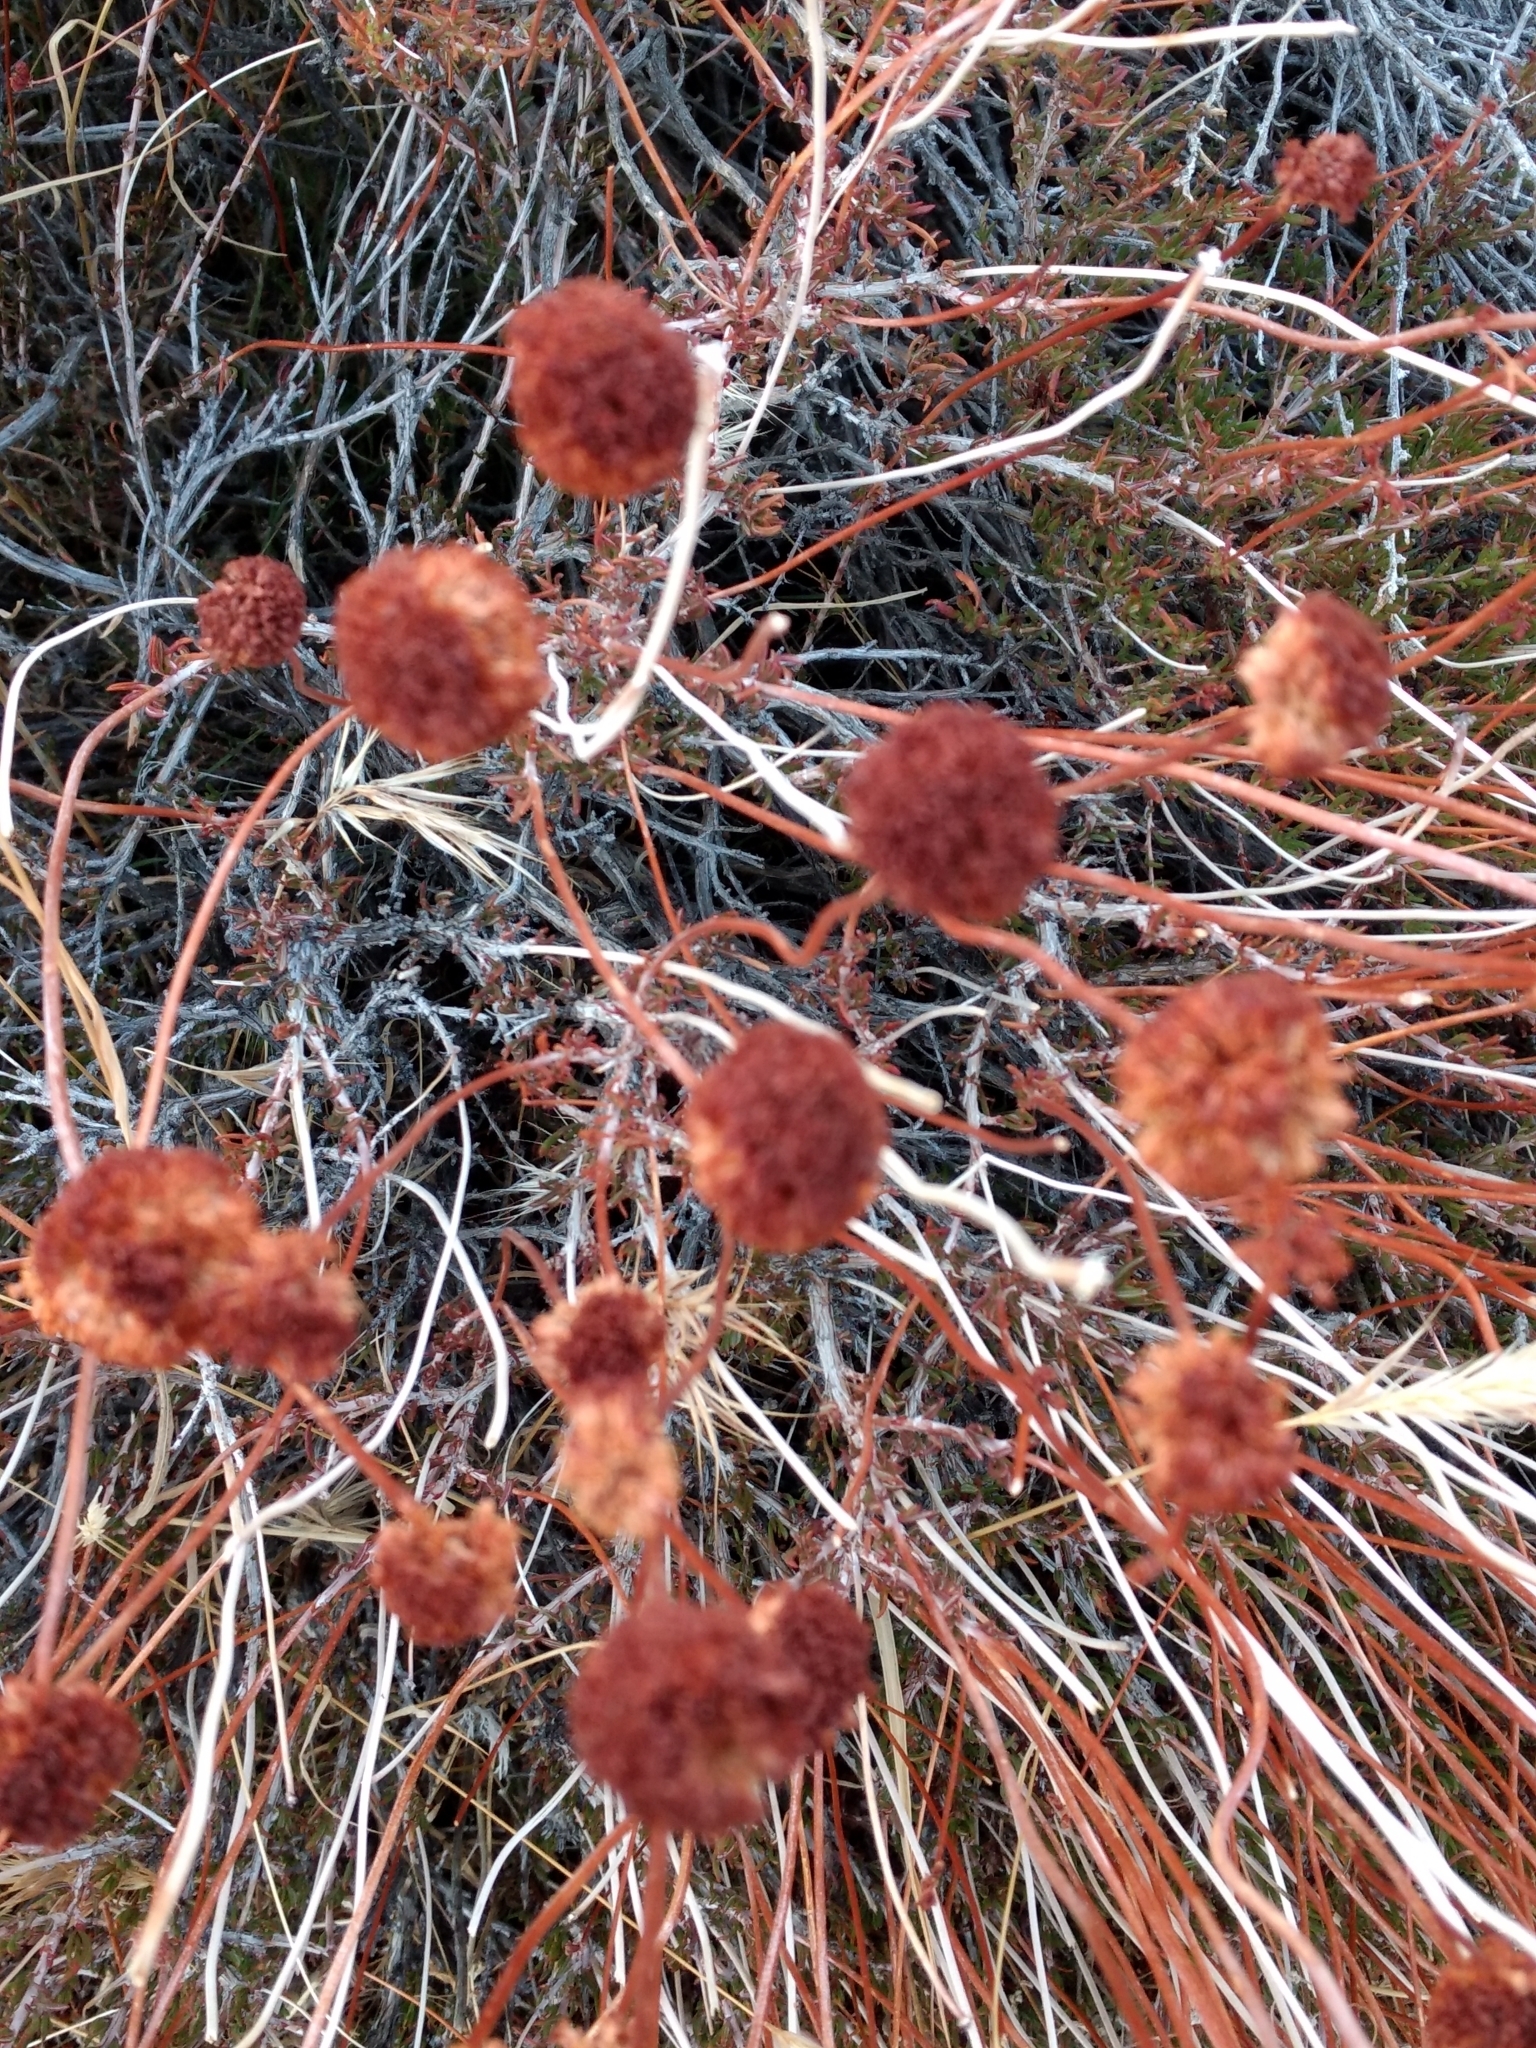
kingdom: Plantae
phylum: Tracheophyta
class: Magnoliopsida
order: Caryophyllales
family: Polygonaceae
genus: Eriogonum
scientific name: Eriogonum fasciculatum
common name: California wild buckwheat
